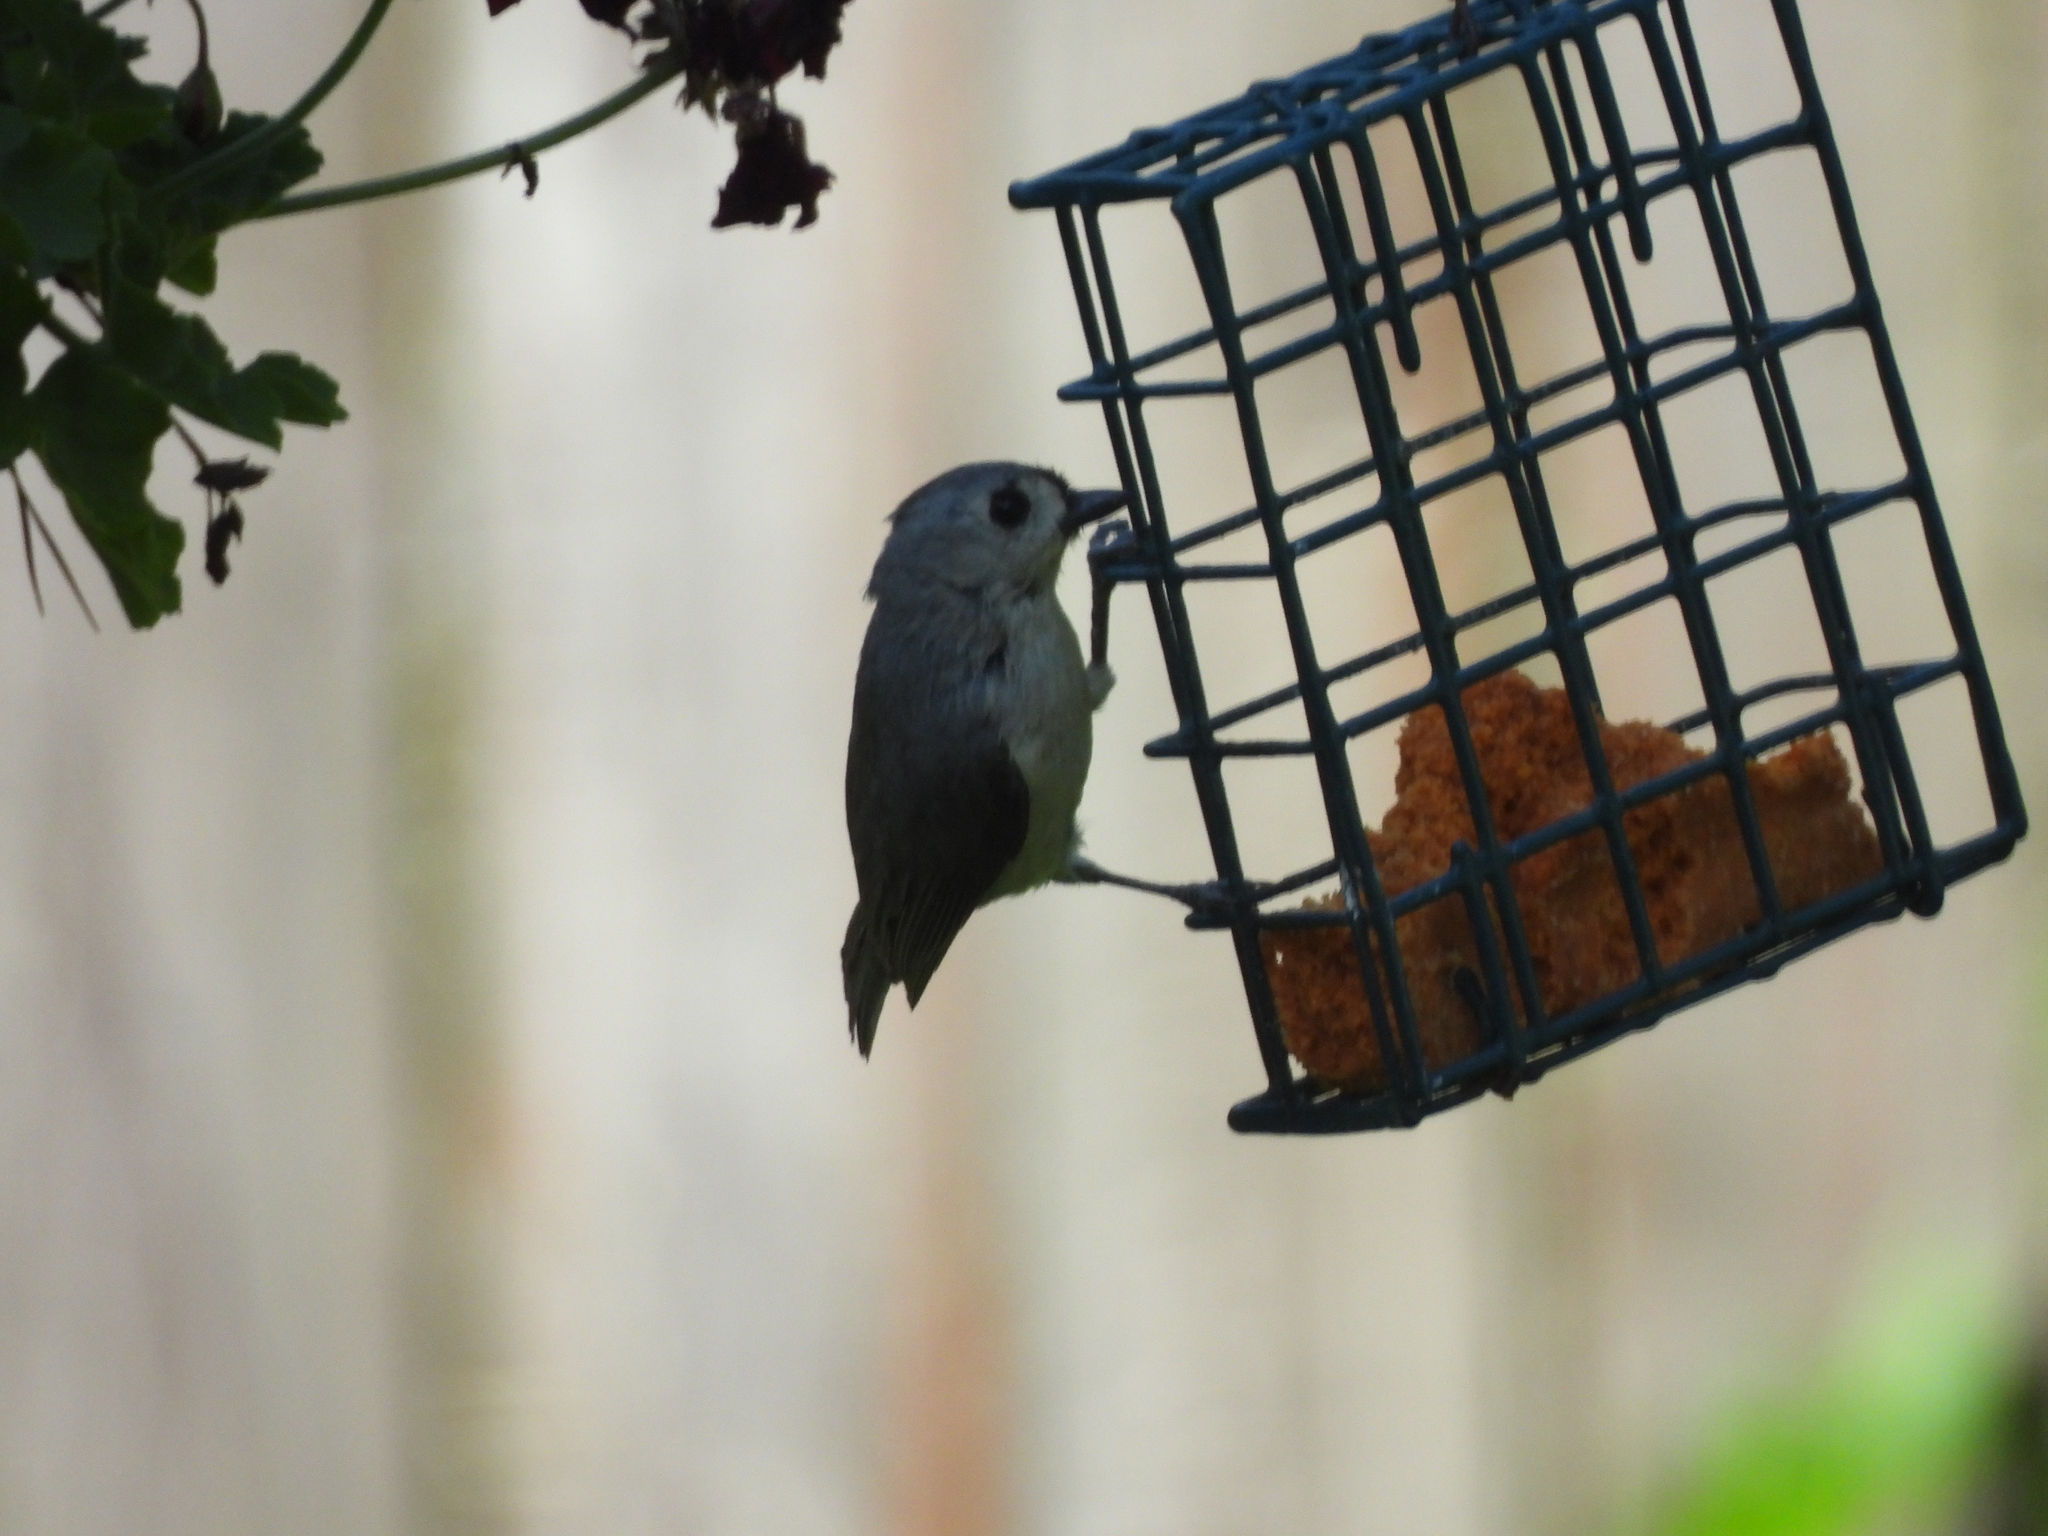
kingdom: Animalia
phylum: Chordata
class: Aves
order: Passeriformes
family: Paridae
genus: Baeolophus
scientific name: Baeolophus bicolor
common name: Tufted titmouse
